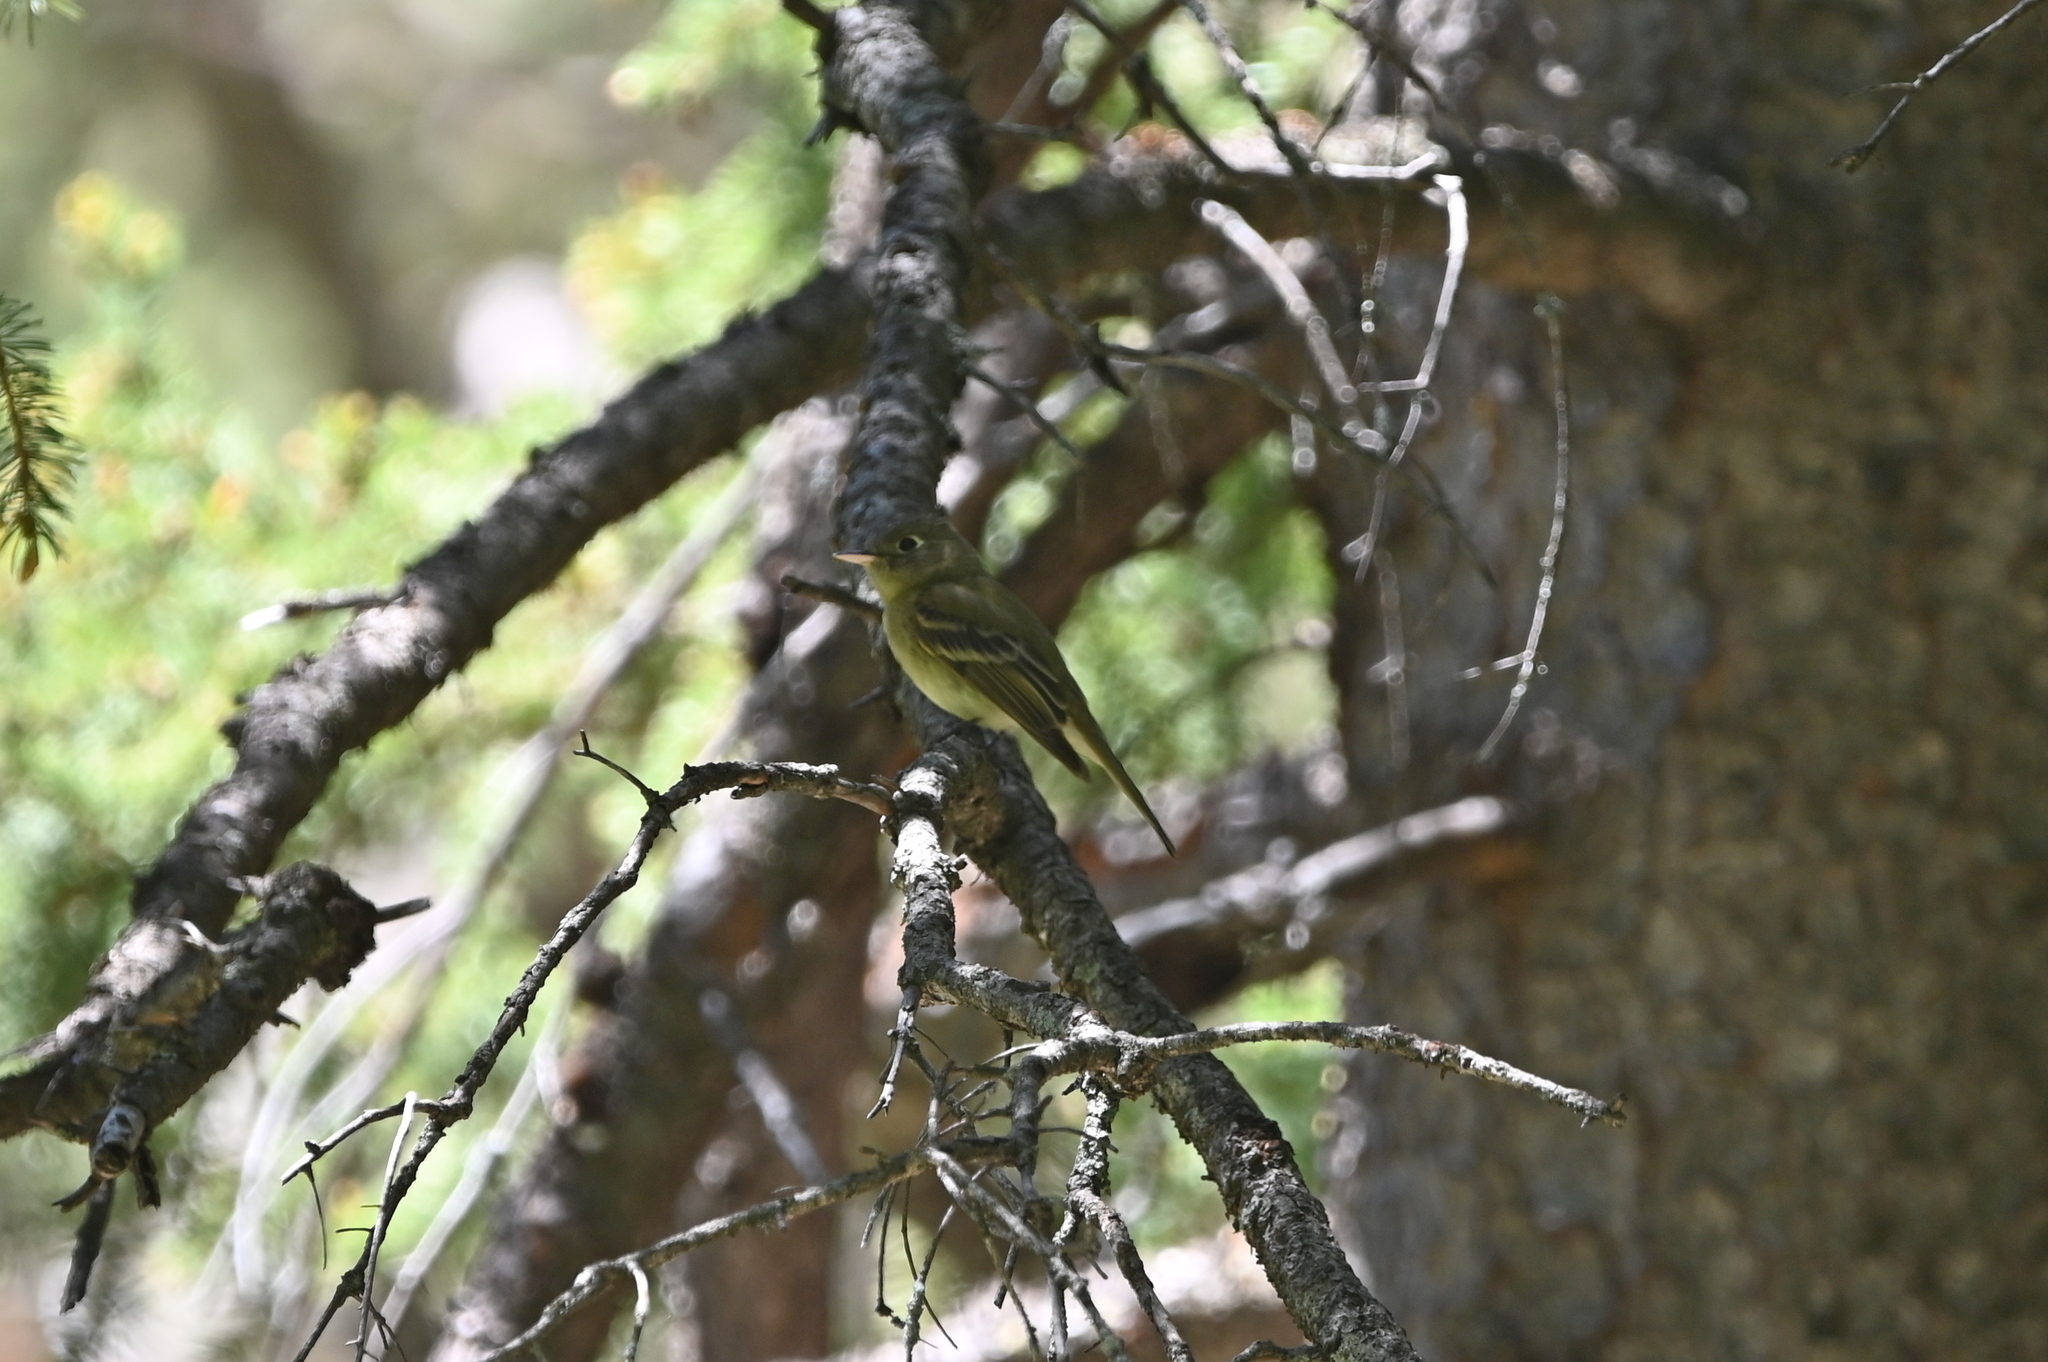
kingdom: Animalia
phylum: Chordata
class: Aves
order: Passeriformes
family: Tyrannidae
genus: Empidonax
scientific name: Empidonax difficilis
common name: Pacific-slope flycatcher
